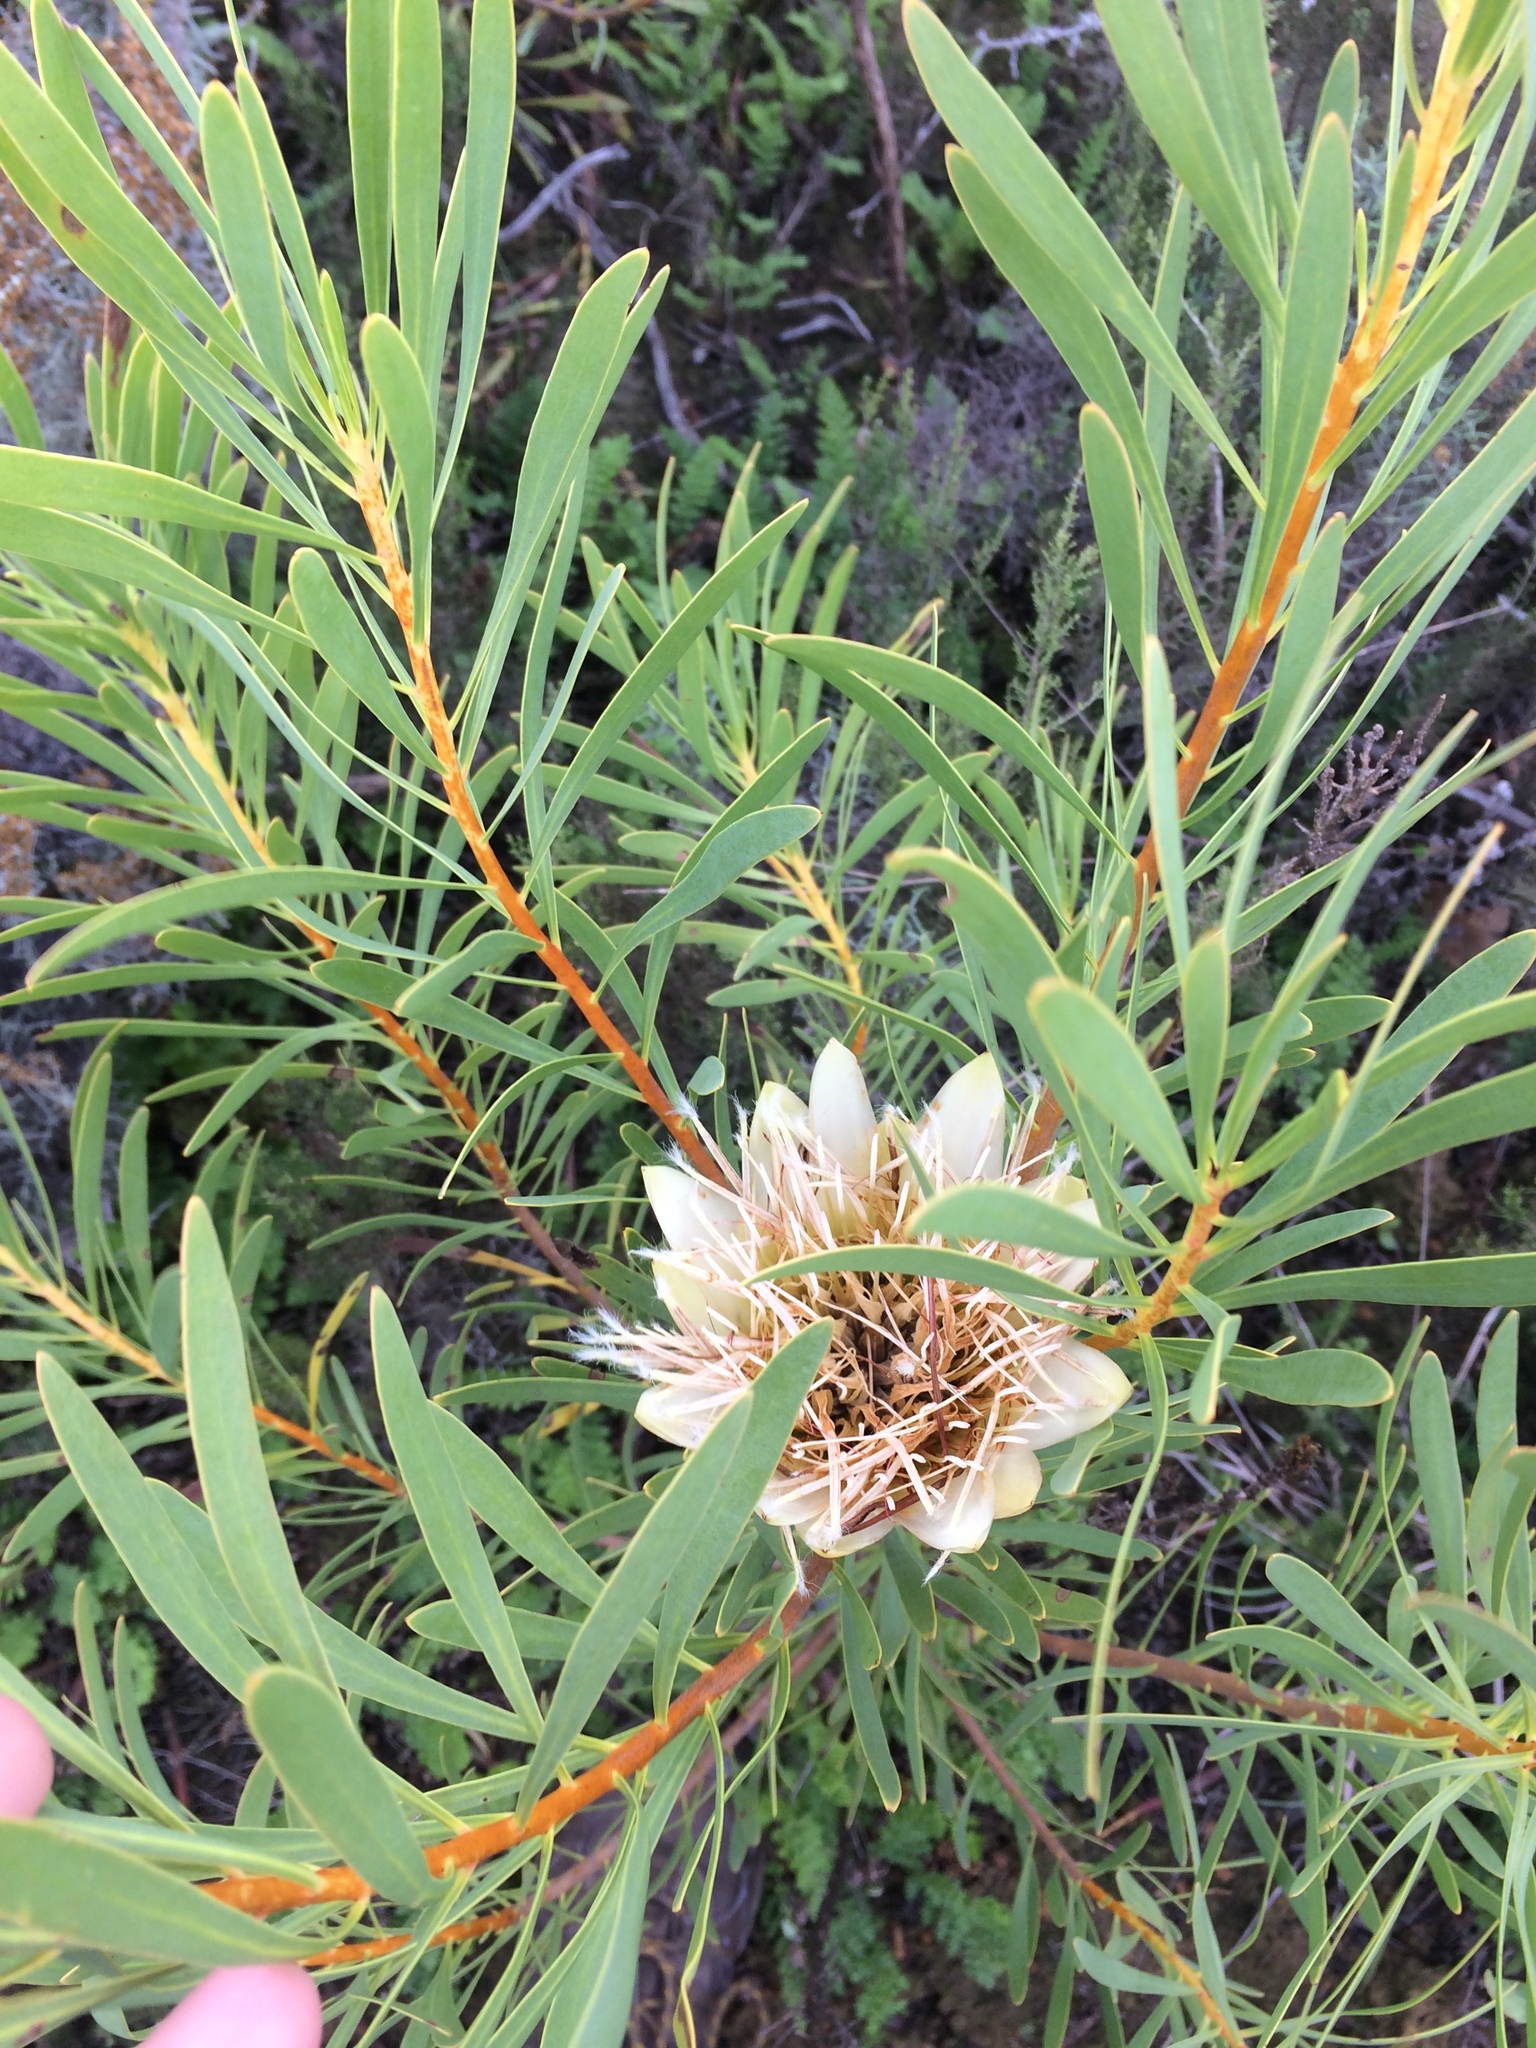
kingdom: Plantae
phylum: Tracheophyta
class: Magnoliopsida
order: Proteales
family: Proteaceae
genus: Protea
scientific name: Protea repens
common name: Sugarbush
